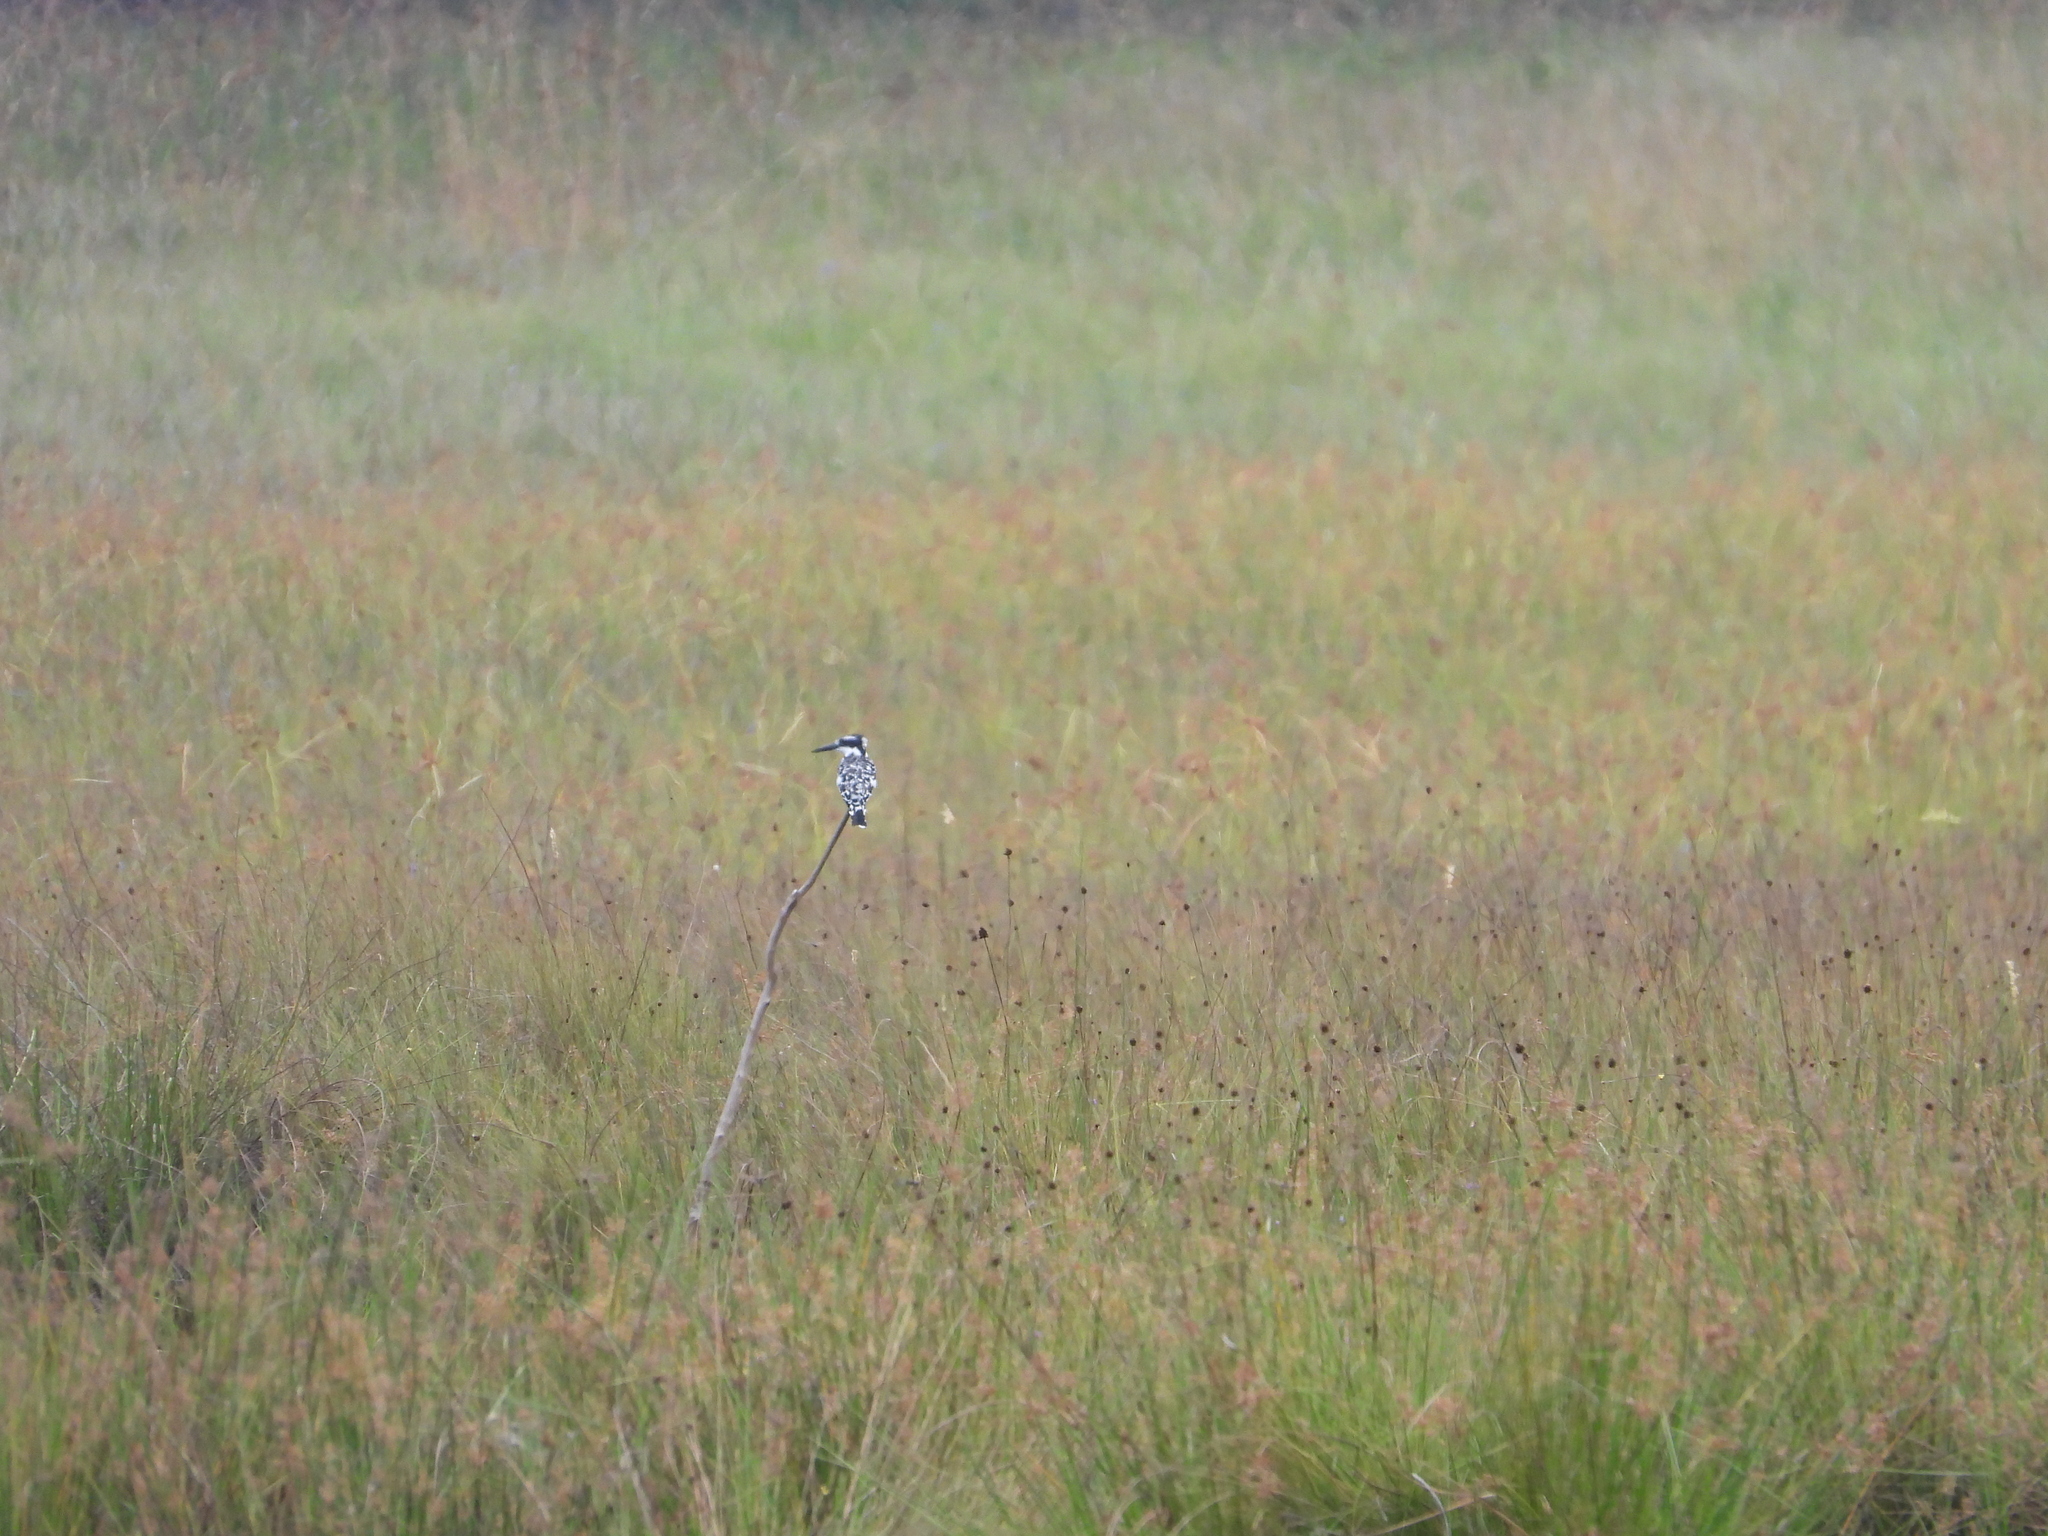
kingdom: Animalia
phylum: Chordata
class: Aves
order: Coraciiformes
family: Alcedinidae
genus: Ceryle
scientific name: Ceryle rudis
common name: Pied kingfisher
